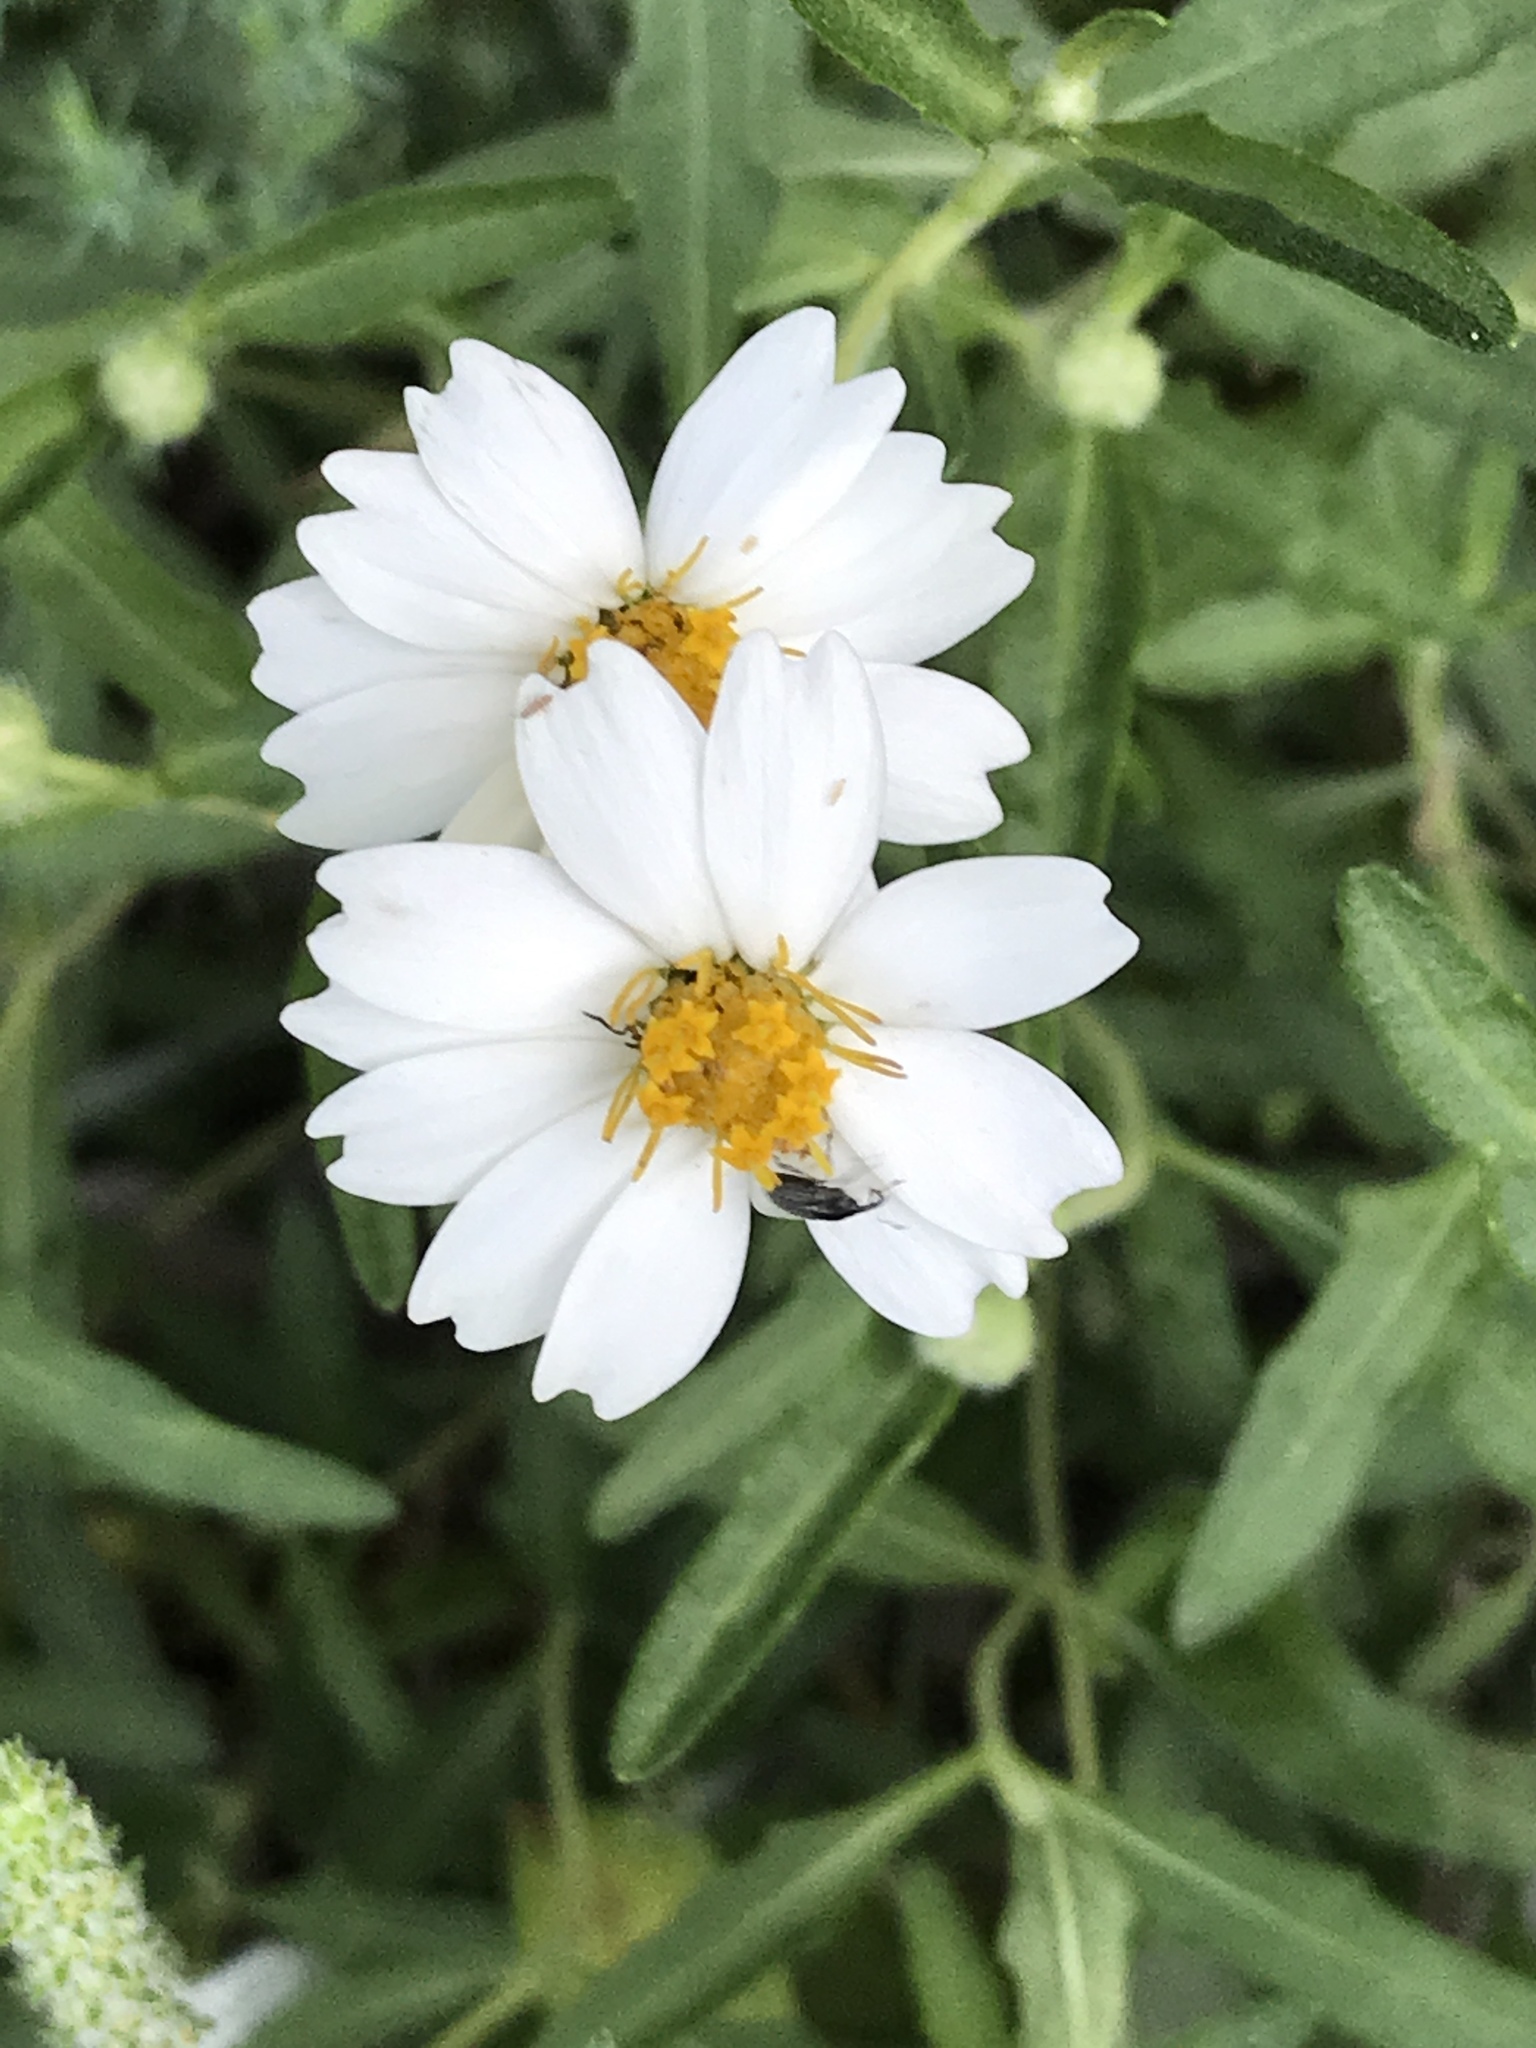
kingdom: Plantae
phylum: Tracheophyta
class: Magnoliopsida
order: Asterales
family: Asteraceae
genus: Melampodium
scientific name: Melampodium leucanthum
